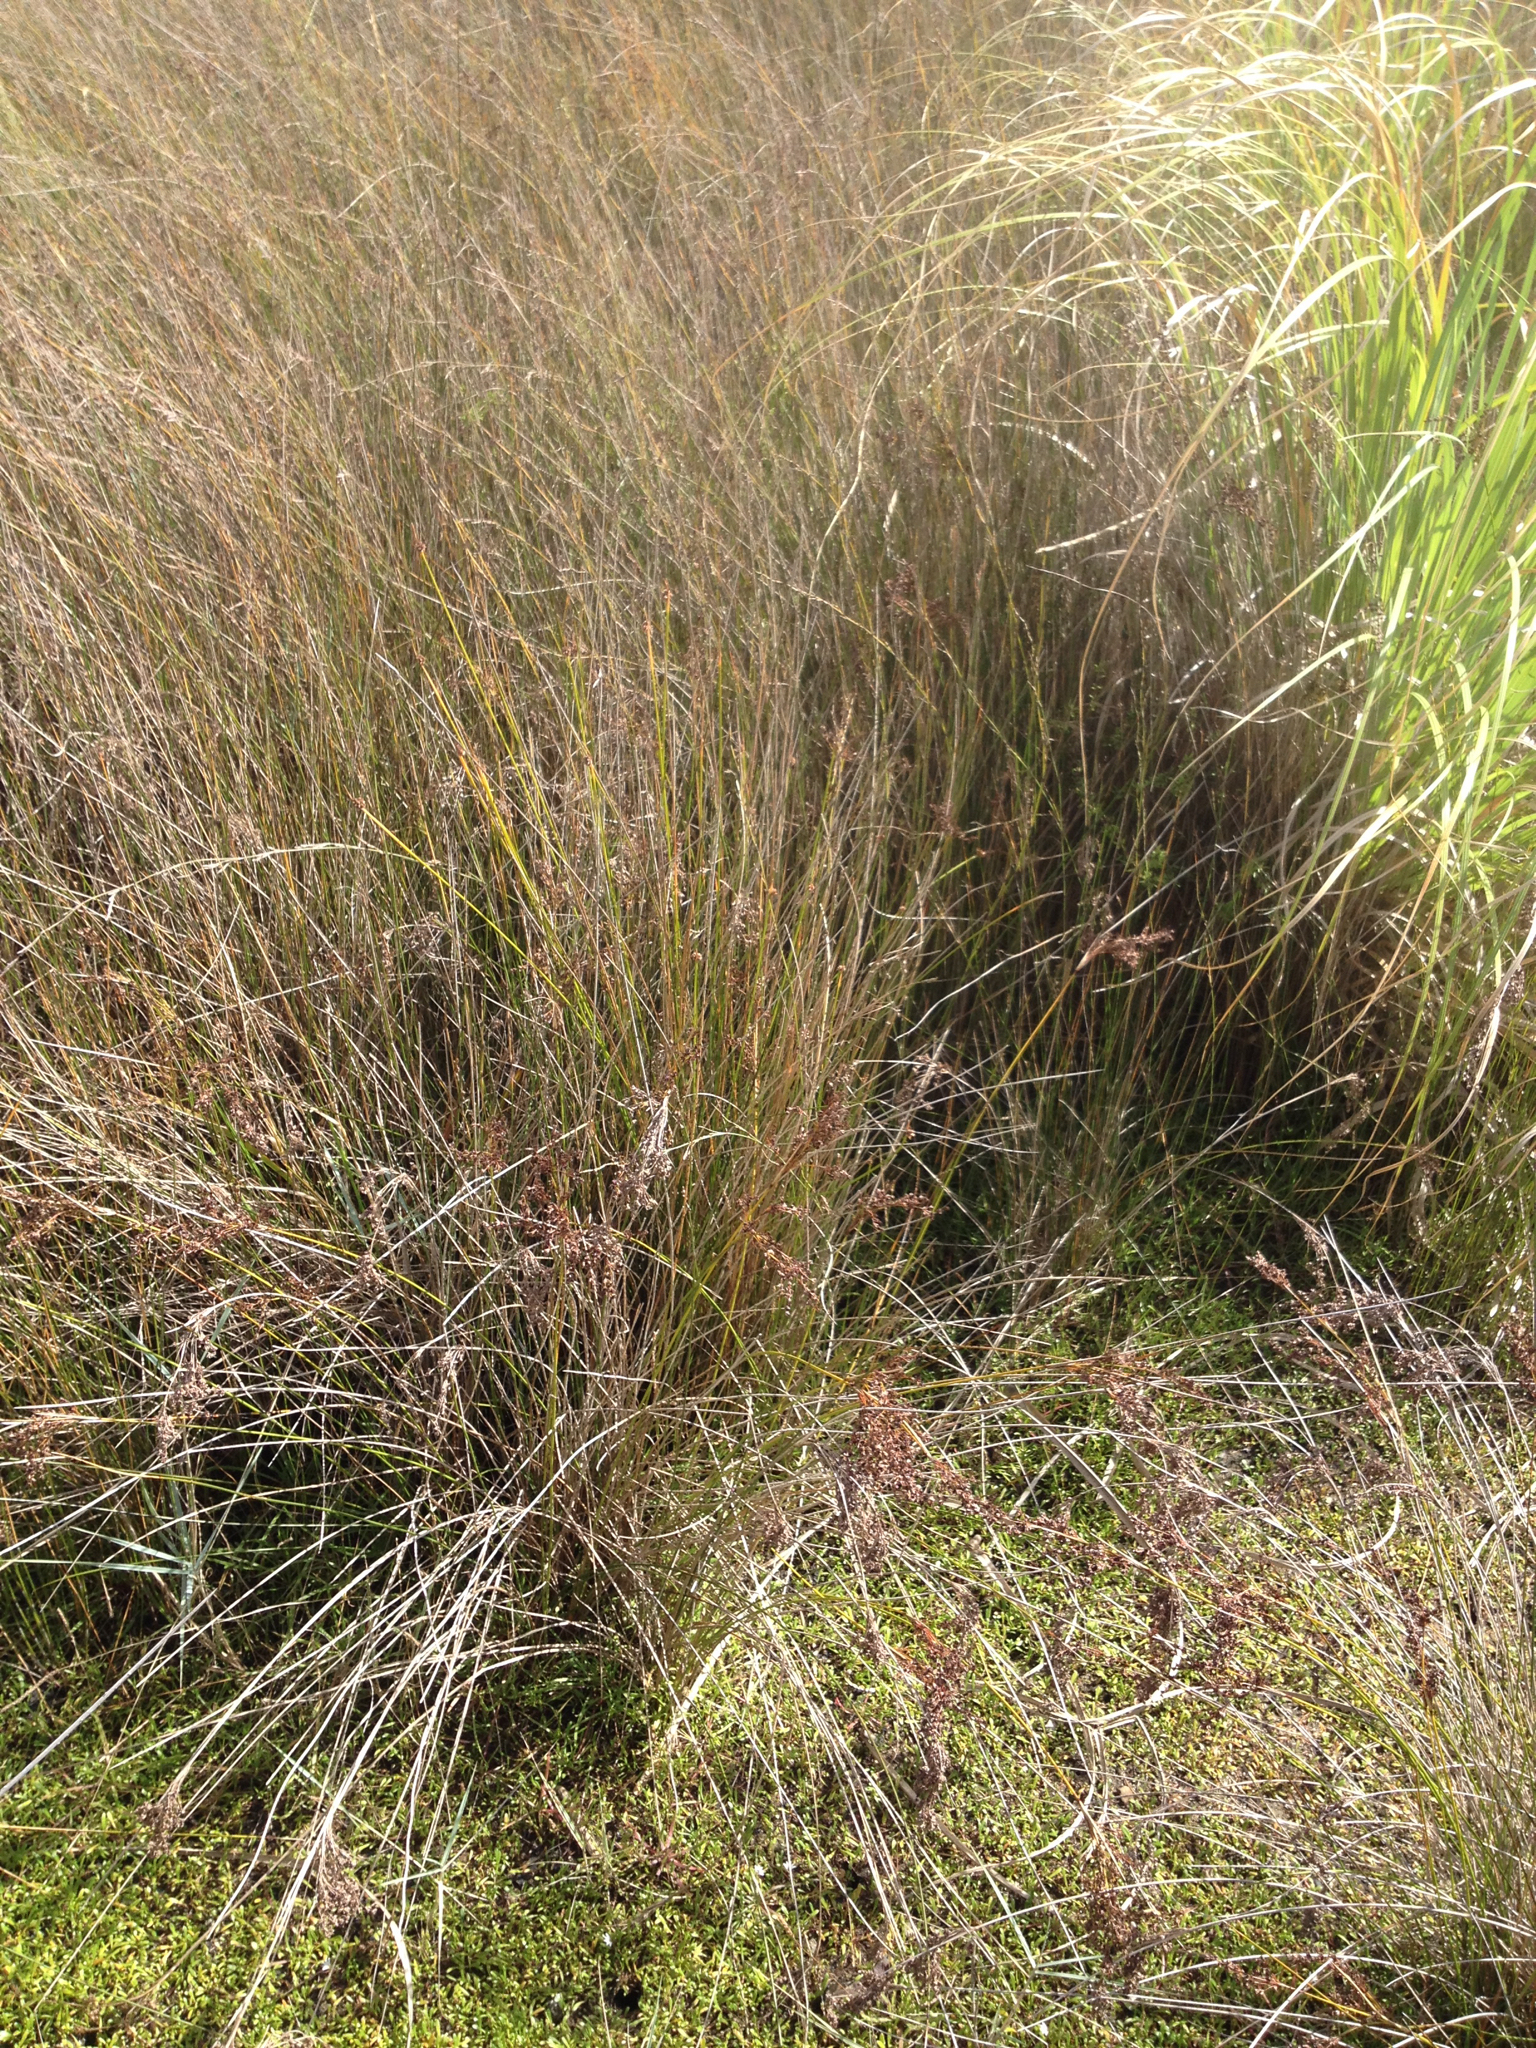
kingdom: Plantae
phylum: Tracheophyta
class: Liliopsida
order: Poales
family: Juncaceae
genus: Juncus
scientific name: Juncus kraussii
